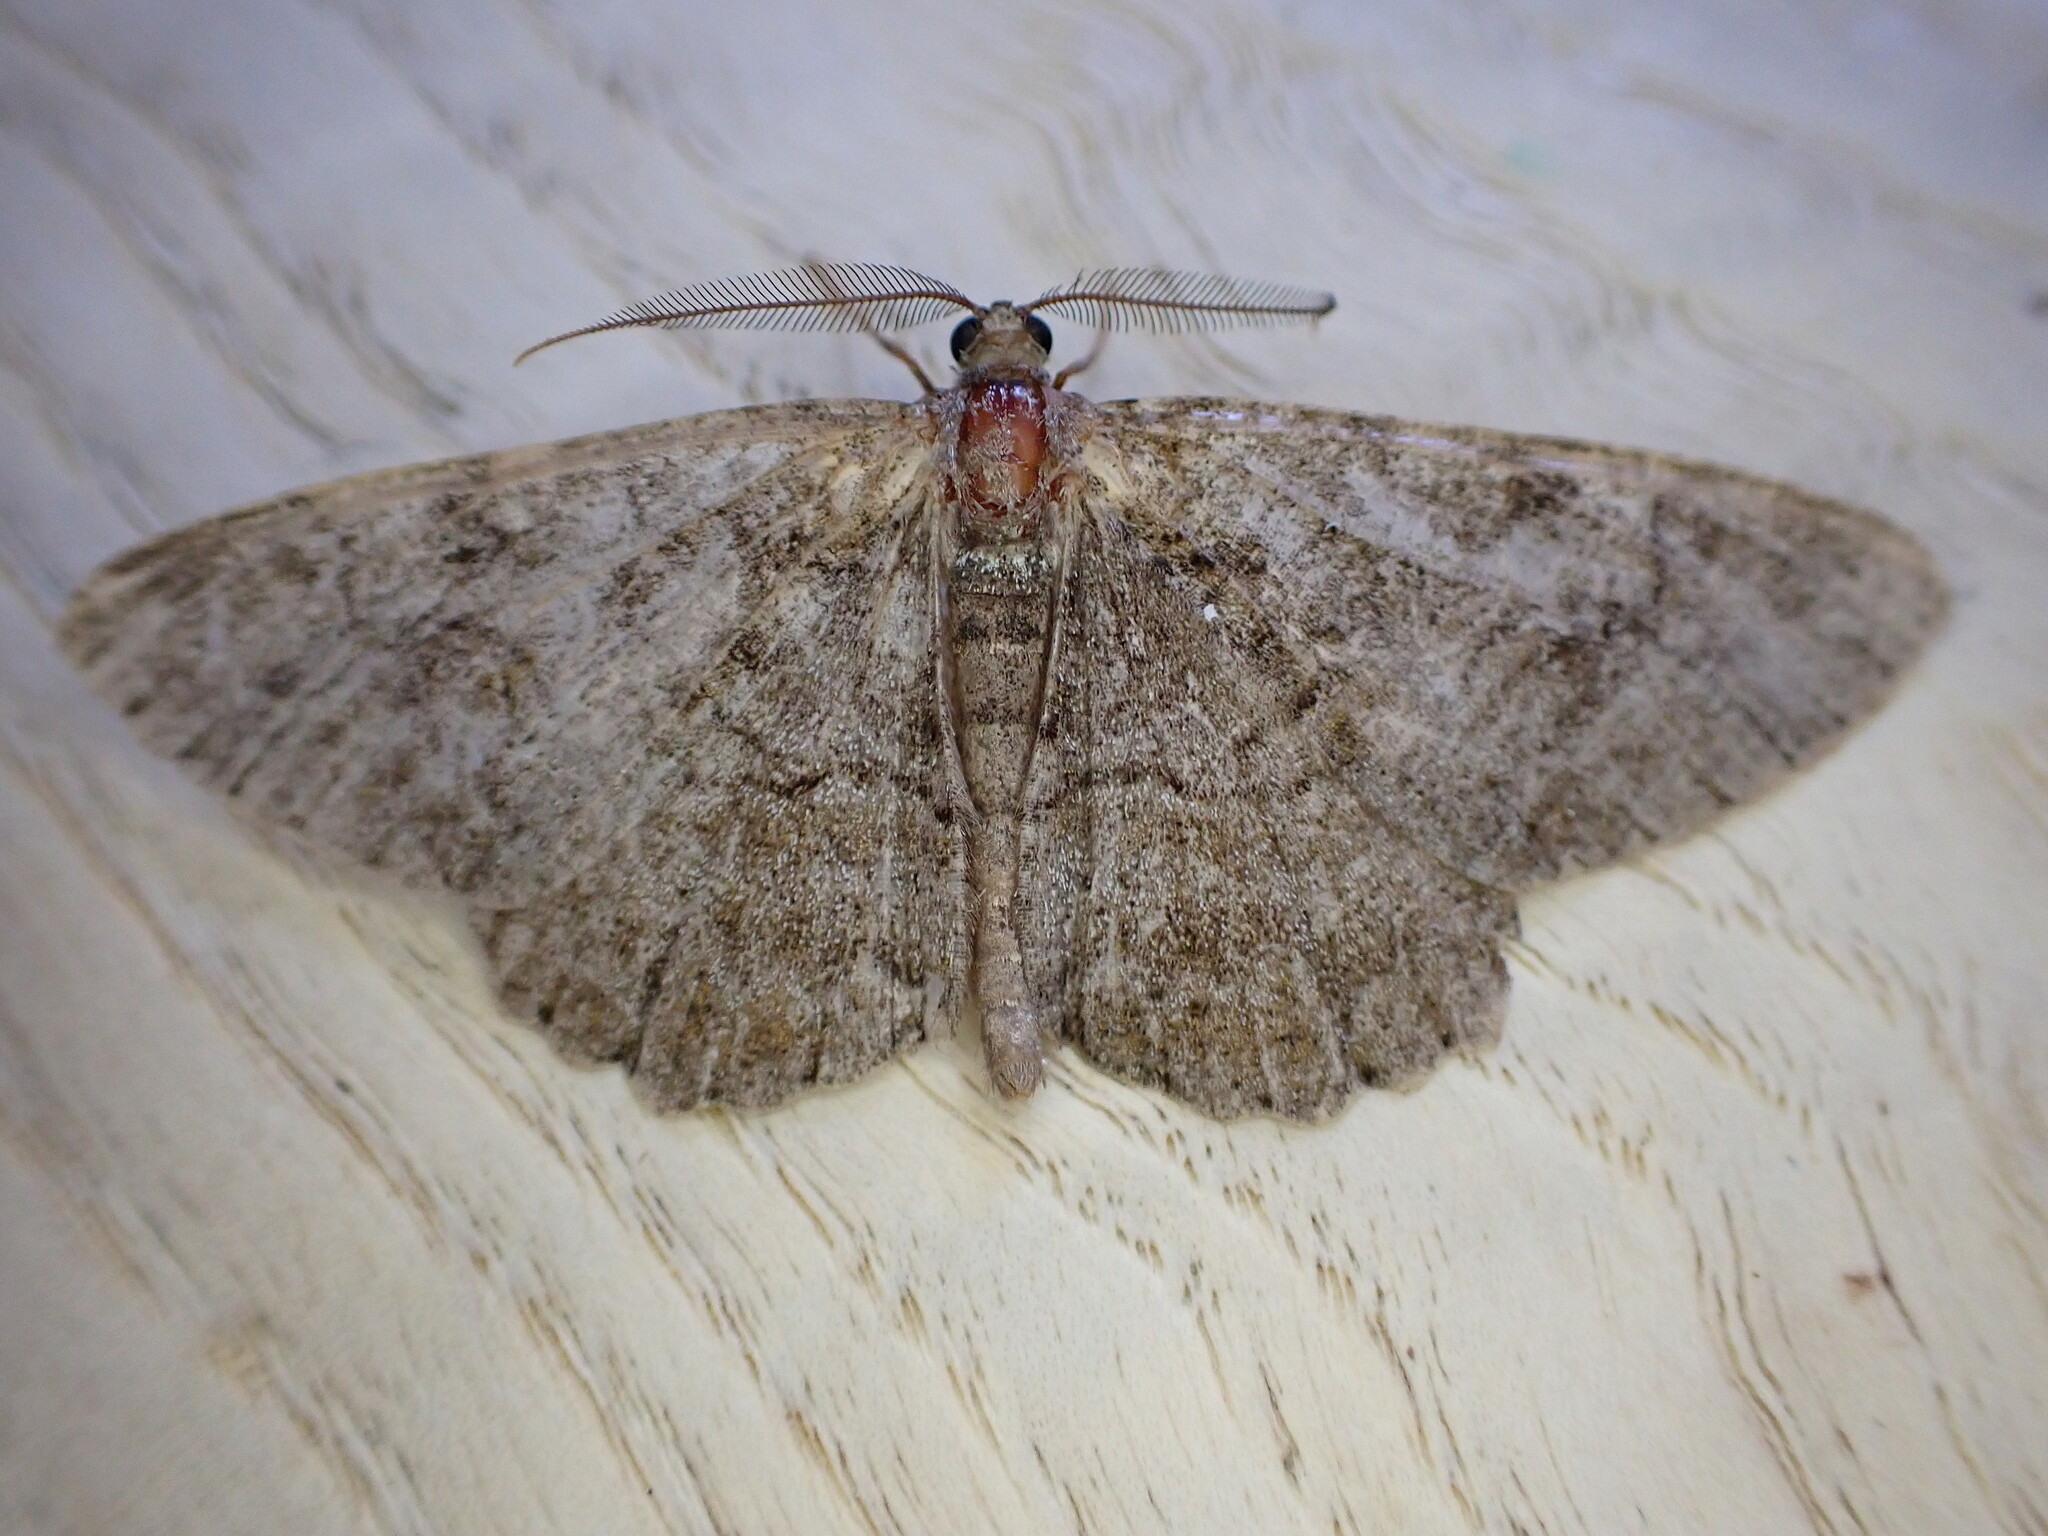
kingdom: Animalia
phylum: Arthropoda
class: Insecta
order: Lepidoptera
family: Geometridae
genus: Alcis
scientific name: Alcis repandata
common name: Mottled beauty
